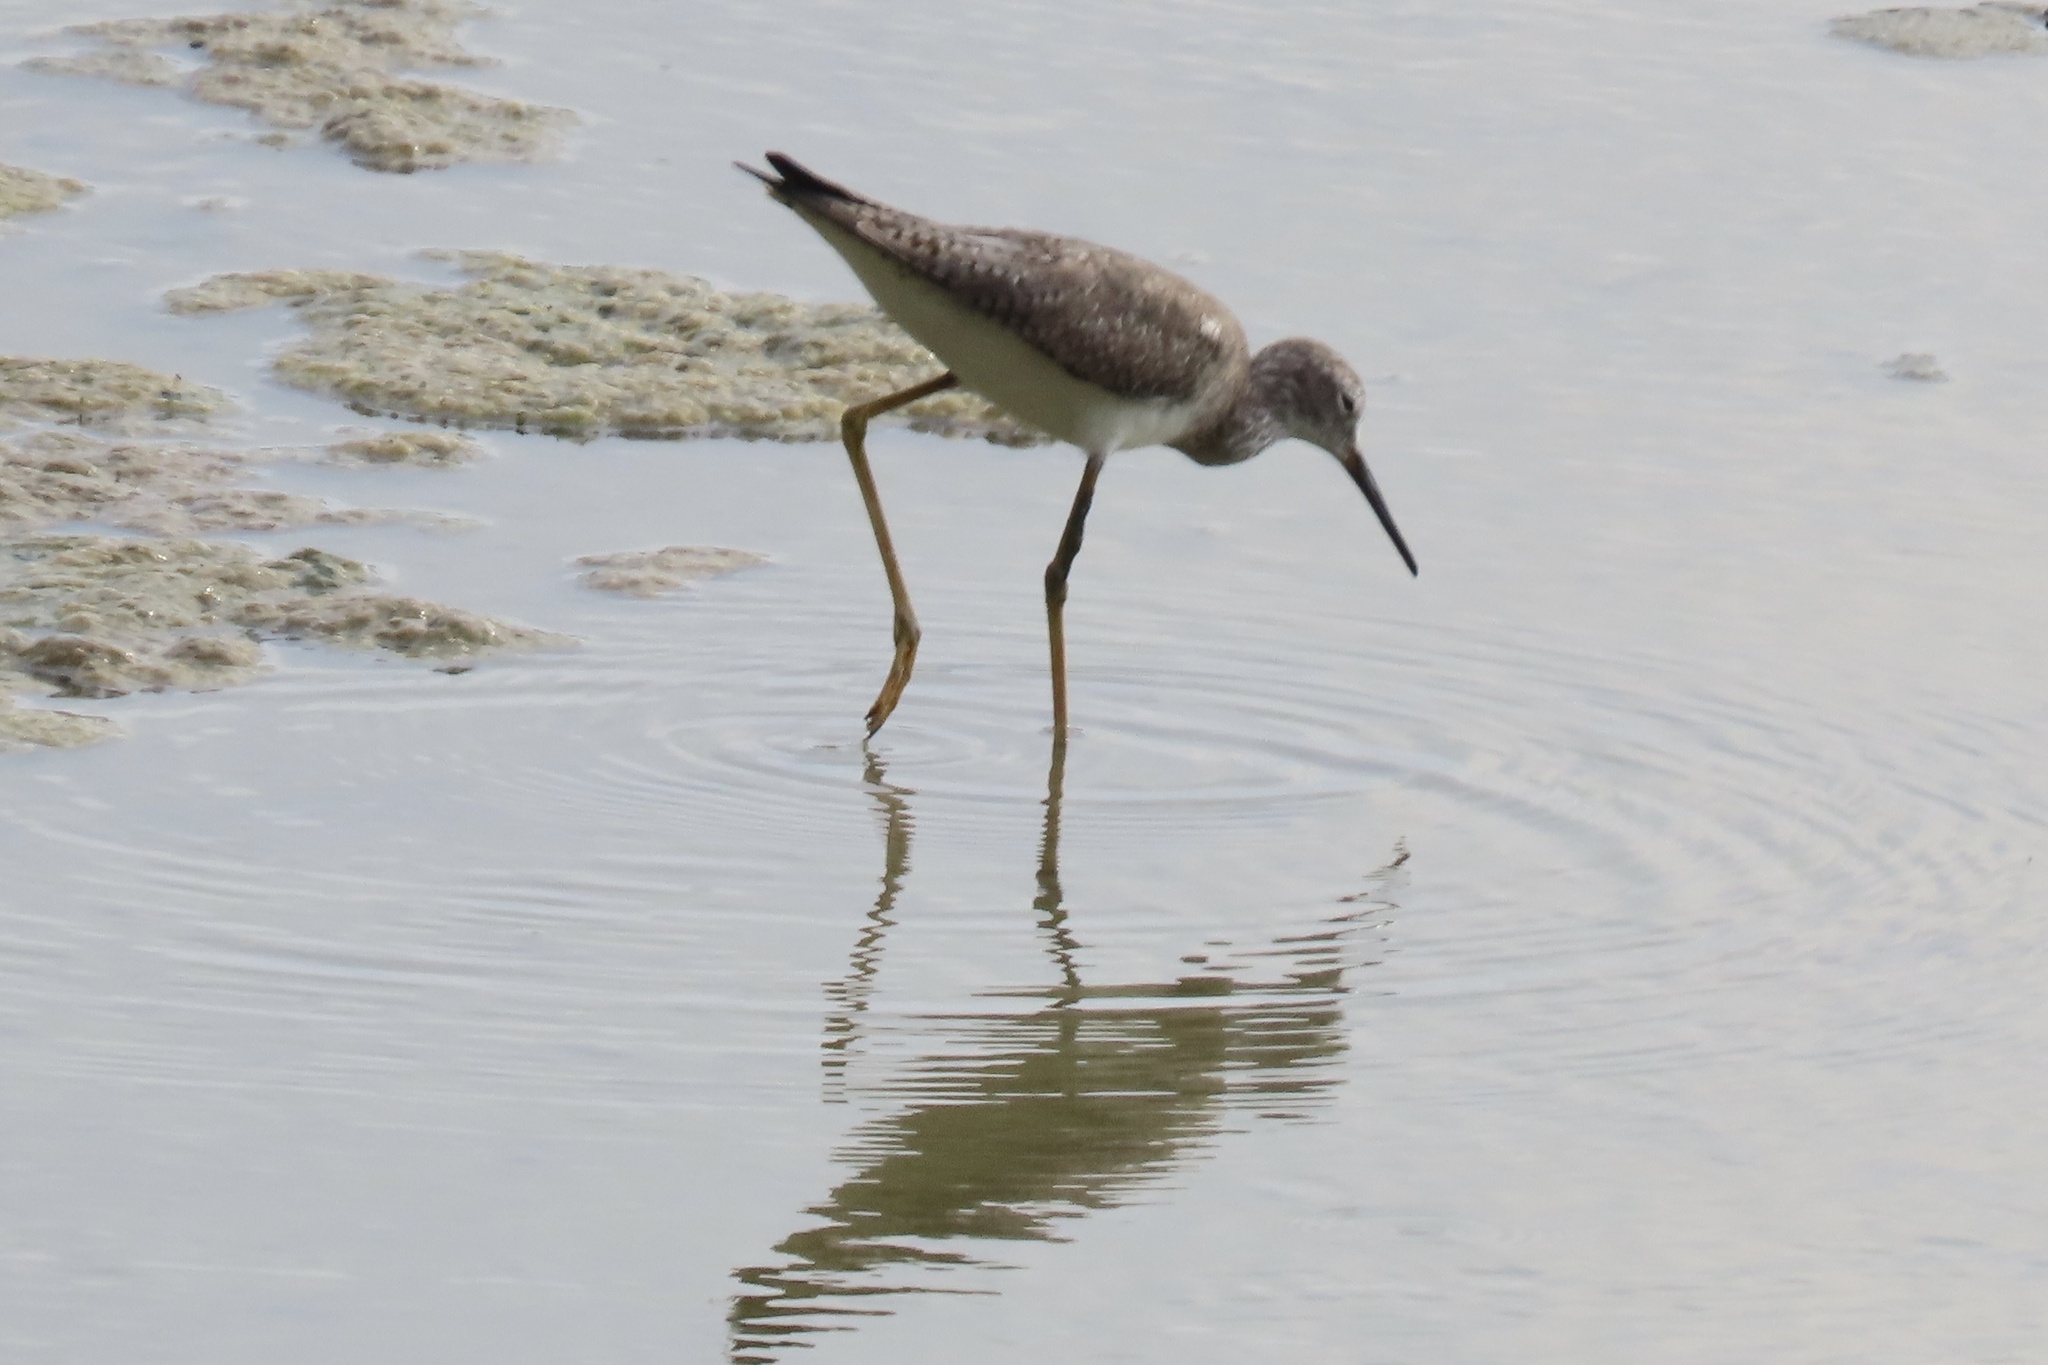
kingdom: Animalia
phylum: Chordata
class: Aves
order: Charadriiformes
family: Scolopacidae
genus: Tringa
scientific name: Tringa flavipes
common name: Lesser yellowlegs
